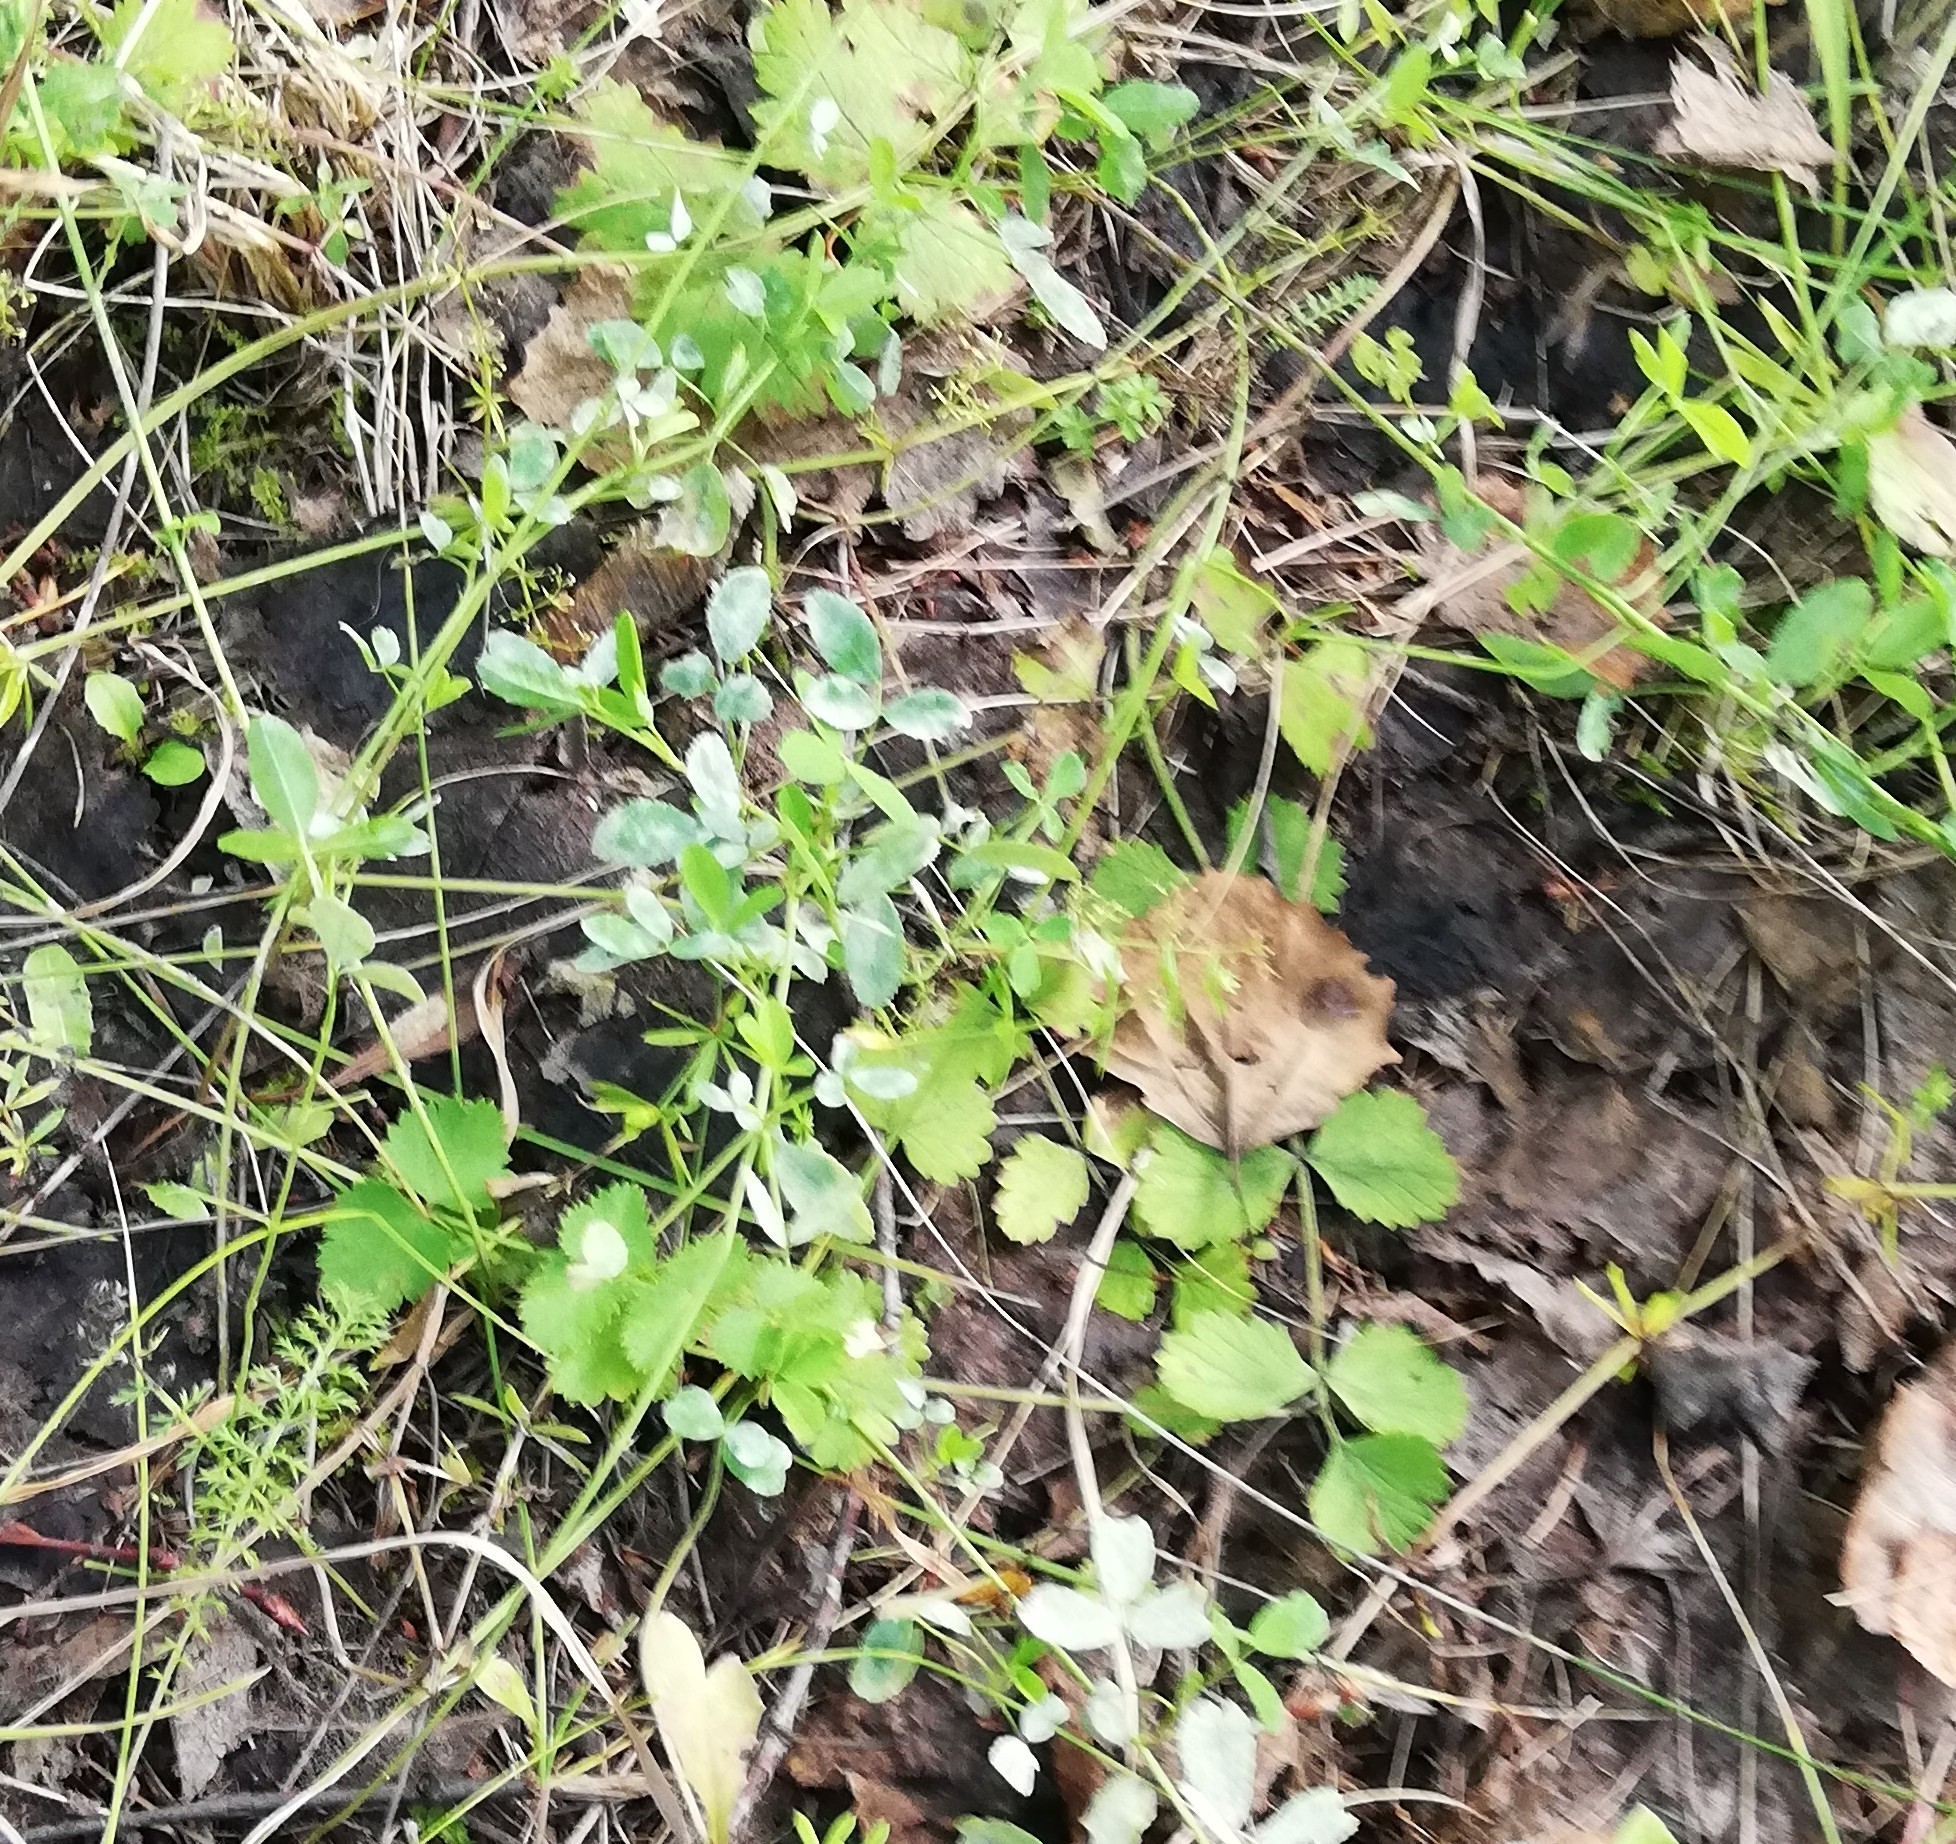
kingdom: Plantae
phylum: Tracheophyta
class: Magnoliopsida
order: Apiales
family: Apiaceae
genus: Pimpinella
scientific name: Pimpinella saxifraga
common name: Burnet-saxifrage
